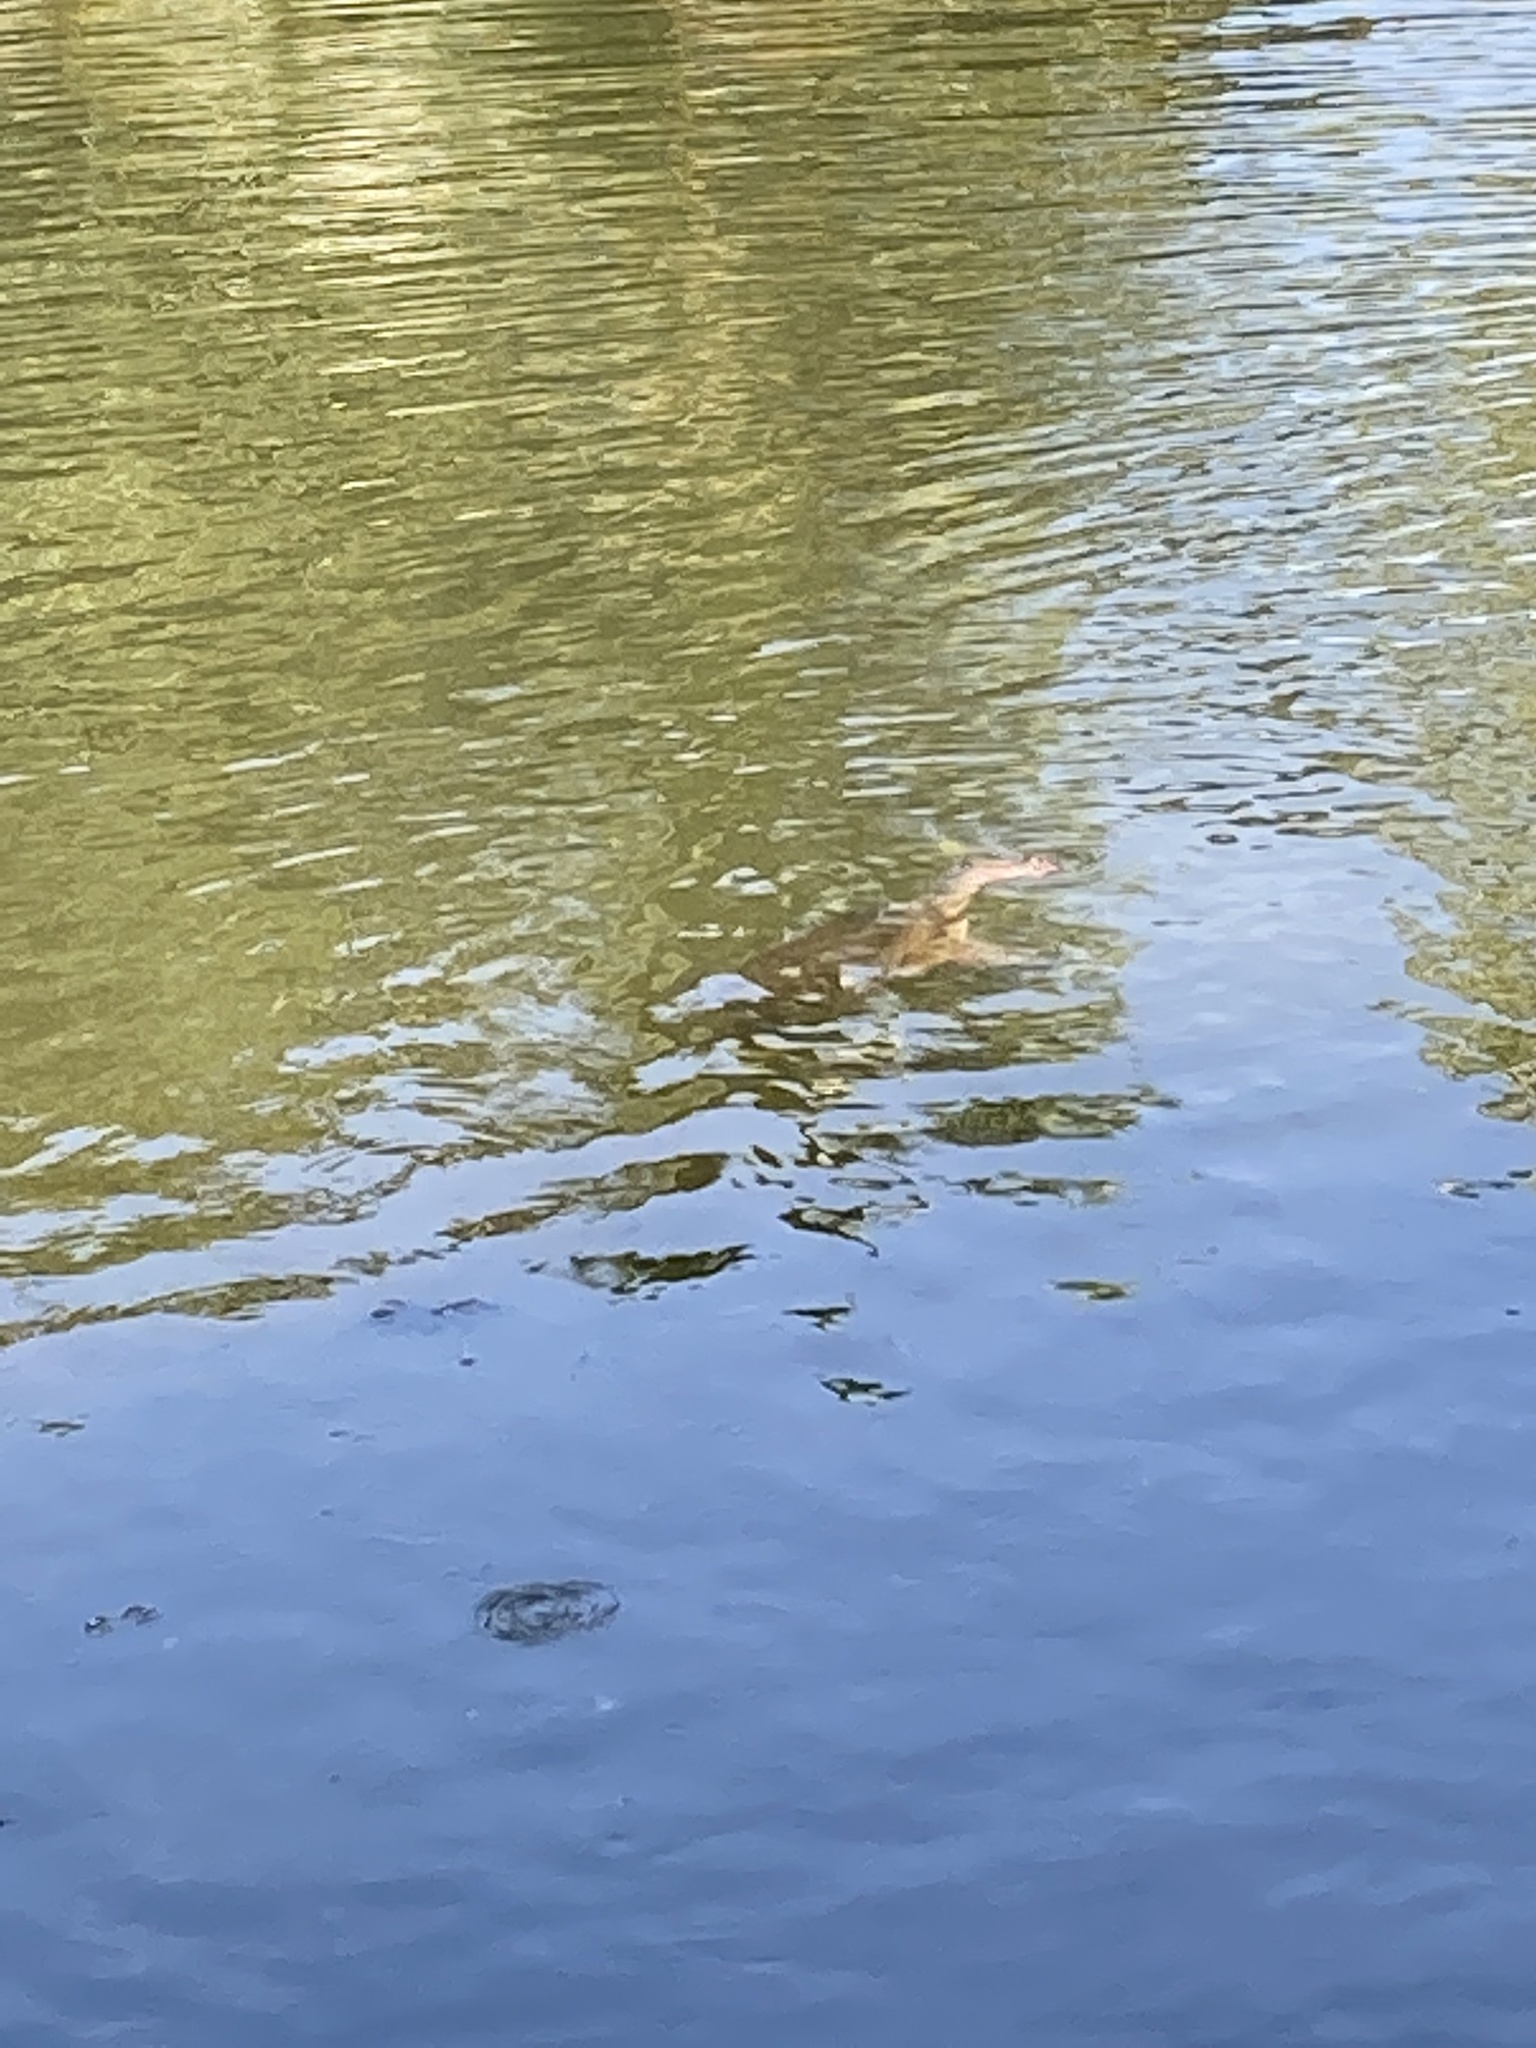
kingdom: Animalia
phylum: Chordata
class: Testudines
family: Trionychidae
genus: Apalone
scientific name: Apalone ferox
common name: Florida softshell turtle
